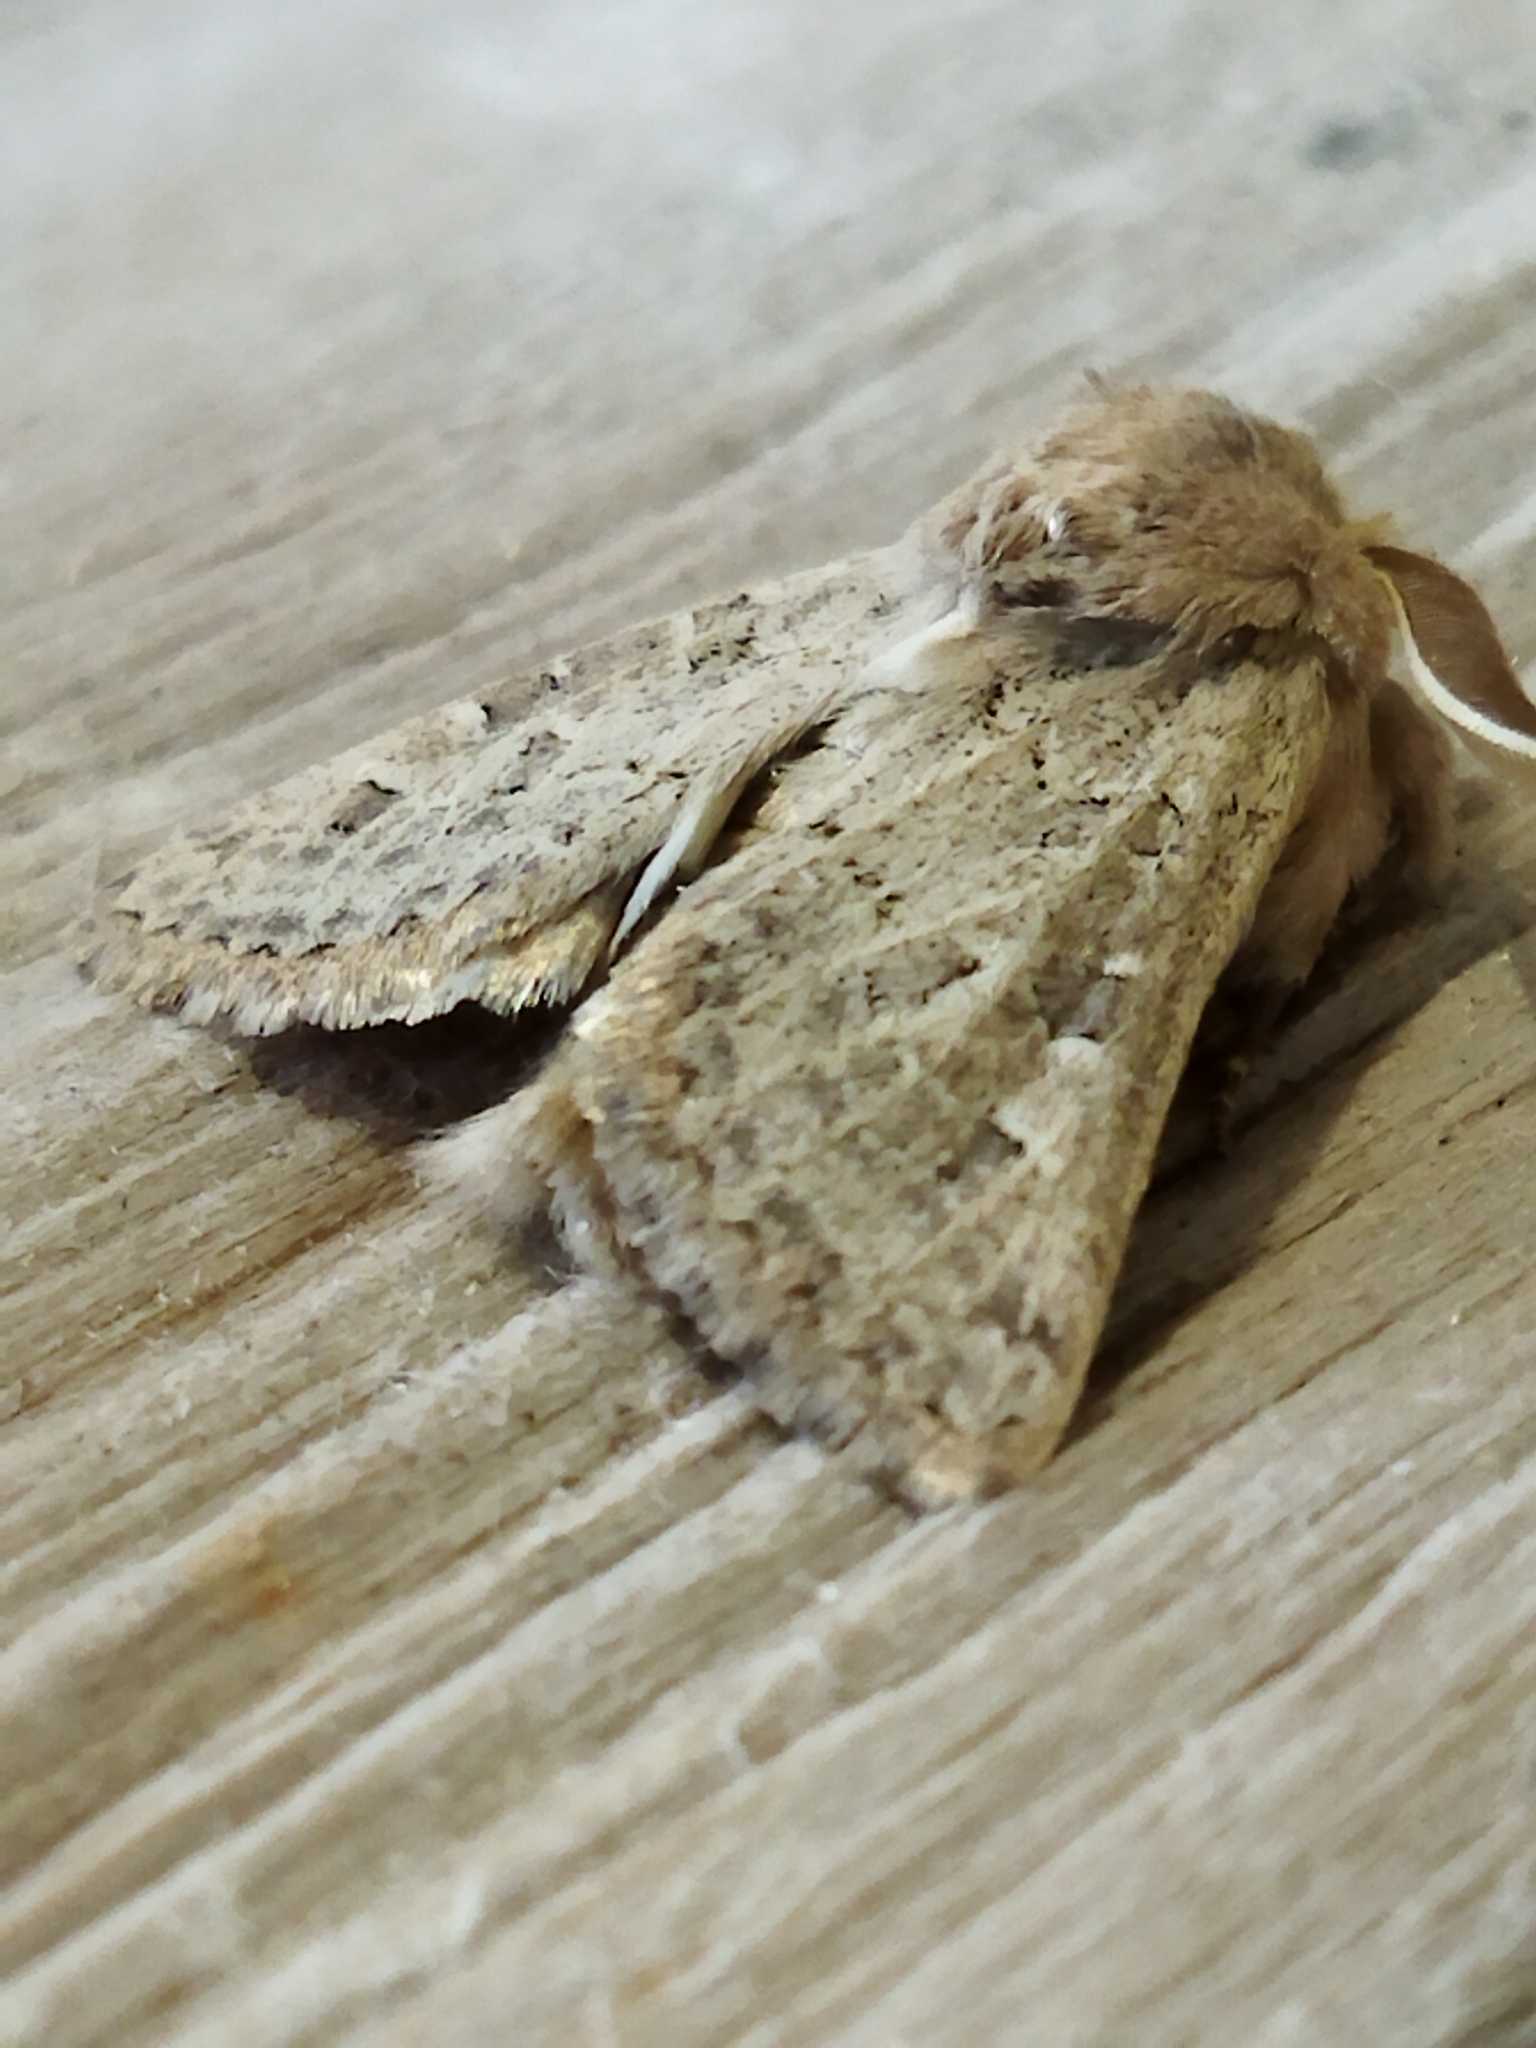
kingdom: Animalia
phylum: Arthropoda
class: Insecta
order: Lepidoptera
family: Noctuidae
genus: Episema
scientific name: Episema lederi
